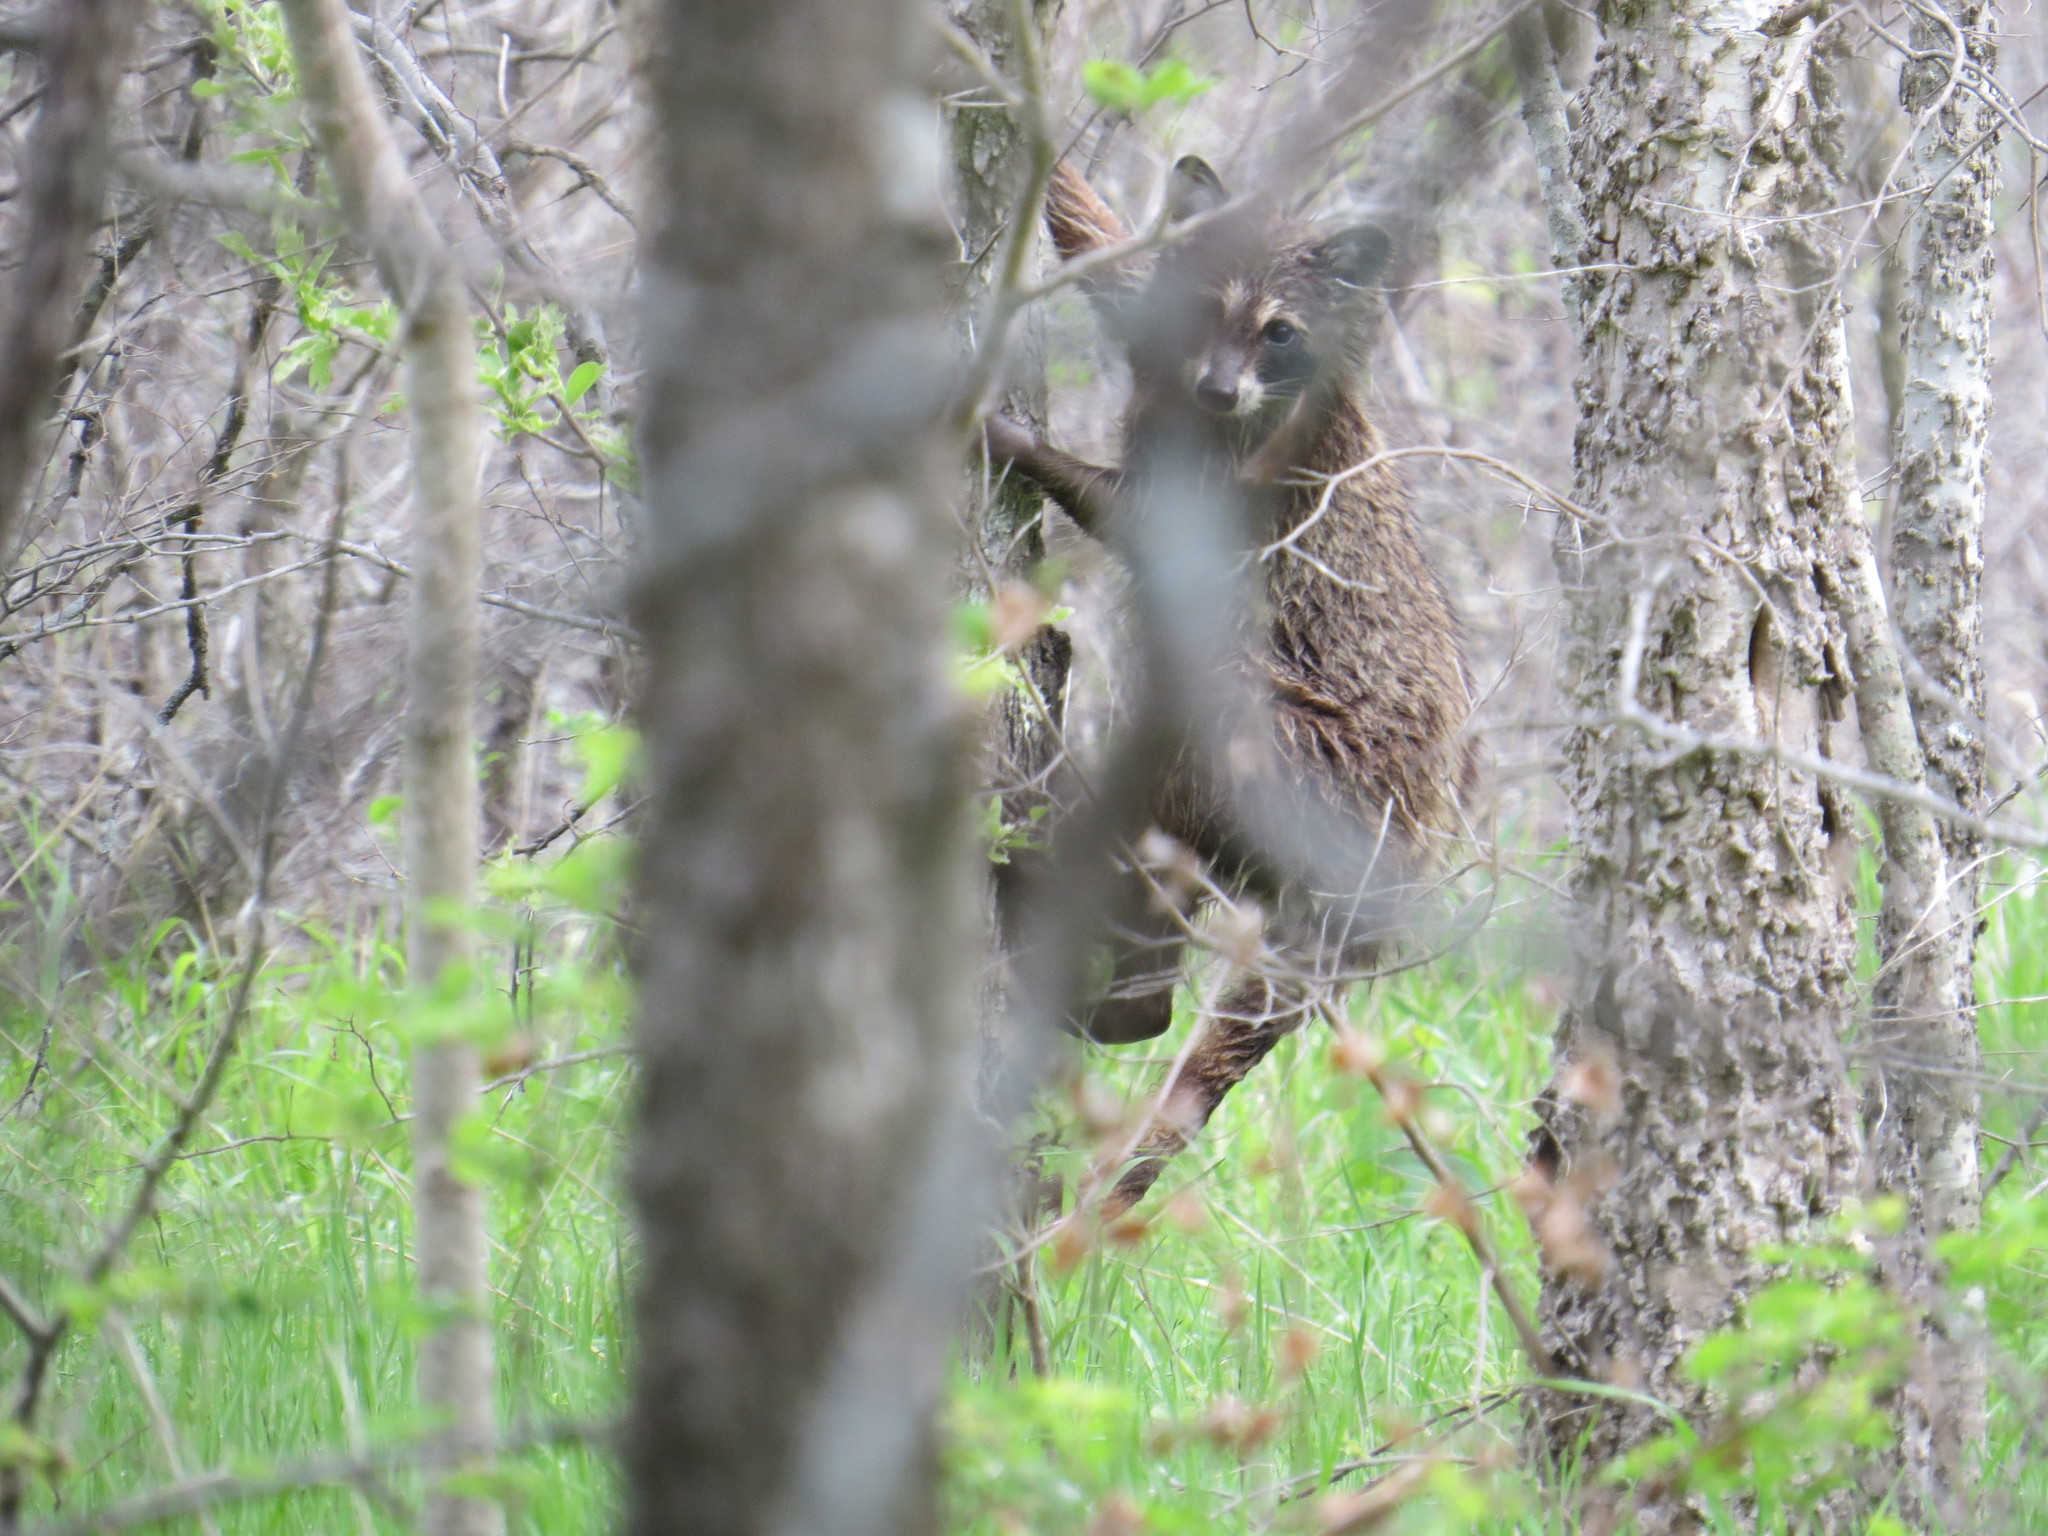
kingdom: Animalia
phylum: Chordata
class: Mammalia
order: Carnivora
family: Procyonidae
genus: Procyon
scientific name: Procyon lotor
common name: Raccoon
